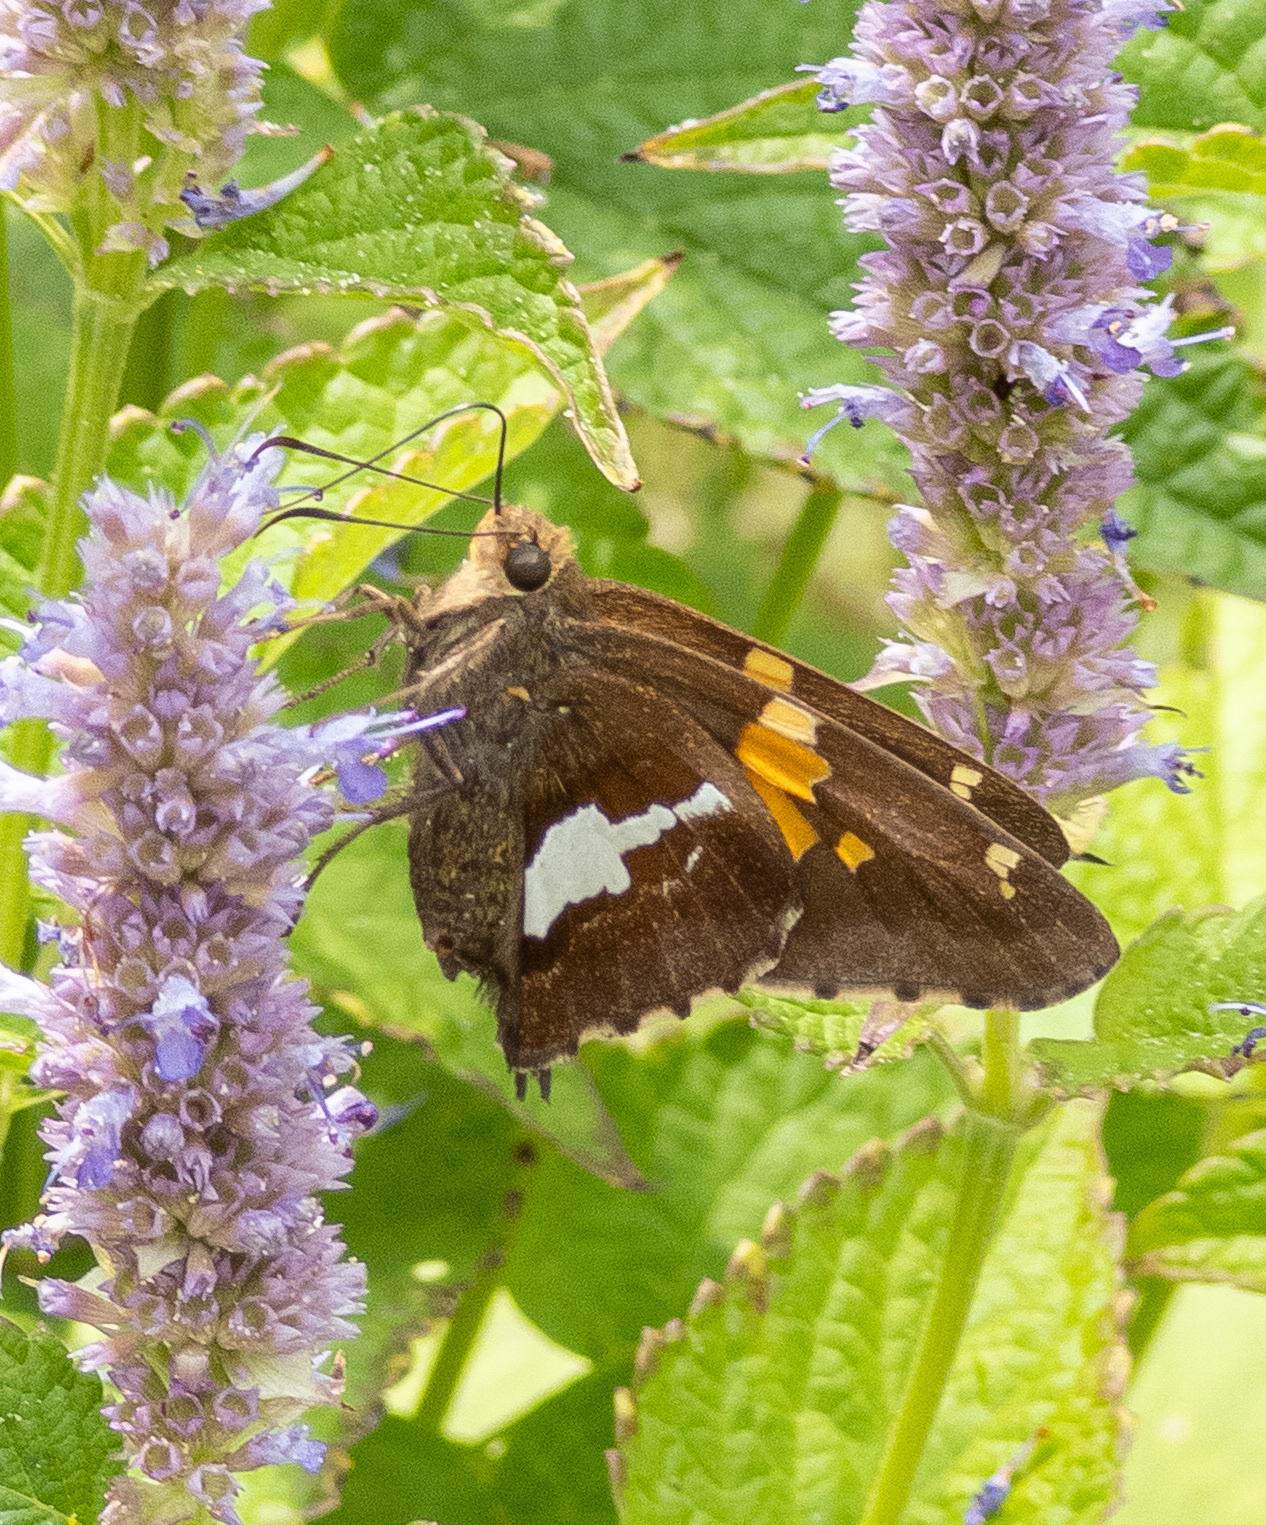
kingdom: Animalia
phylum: Arthropoda
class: Insecta
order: Lepidoptera
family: Hesperiidae
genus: Epargyreus
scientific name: Epargyreus clarus
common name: Silver-spotted skipper
